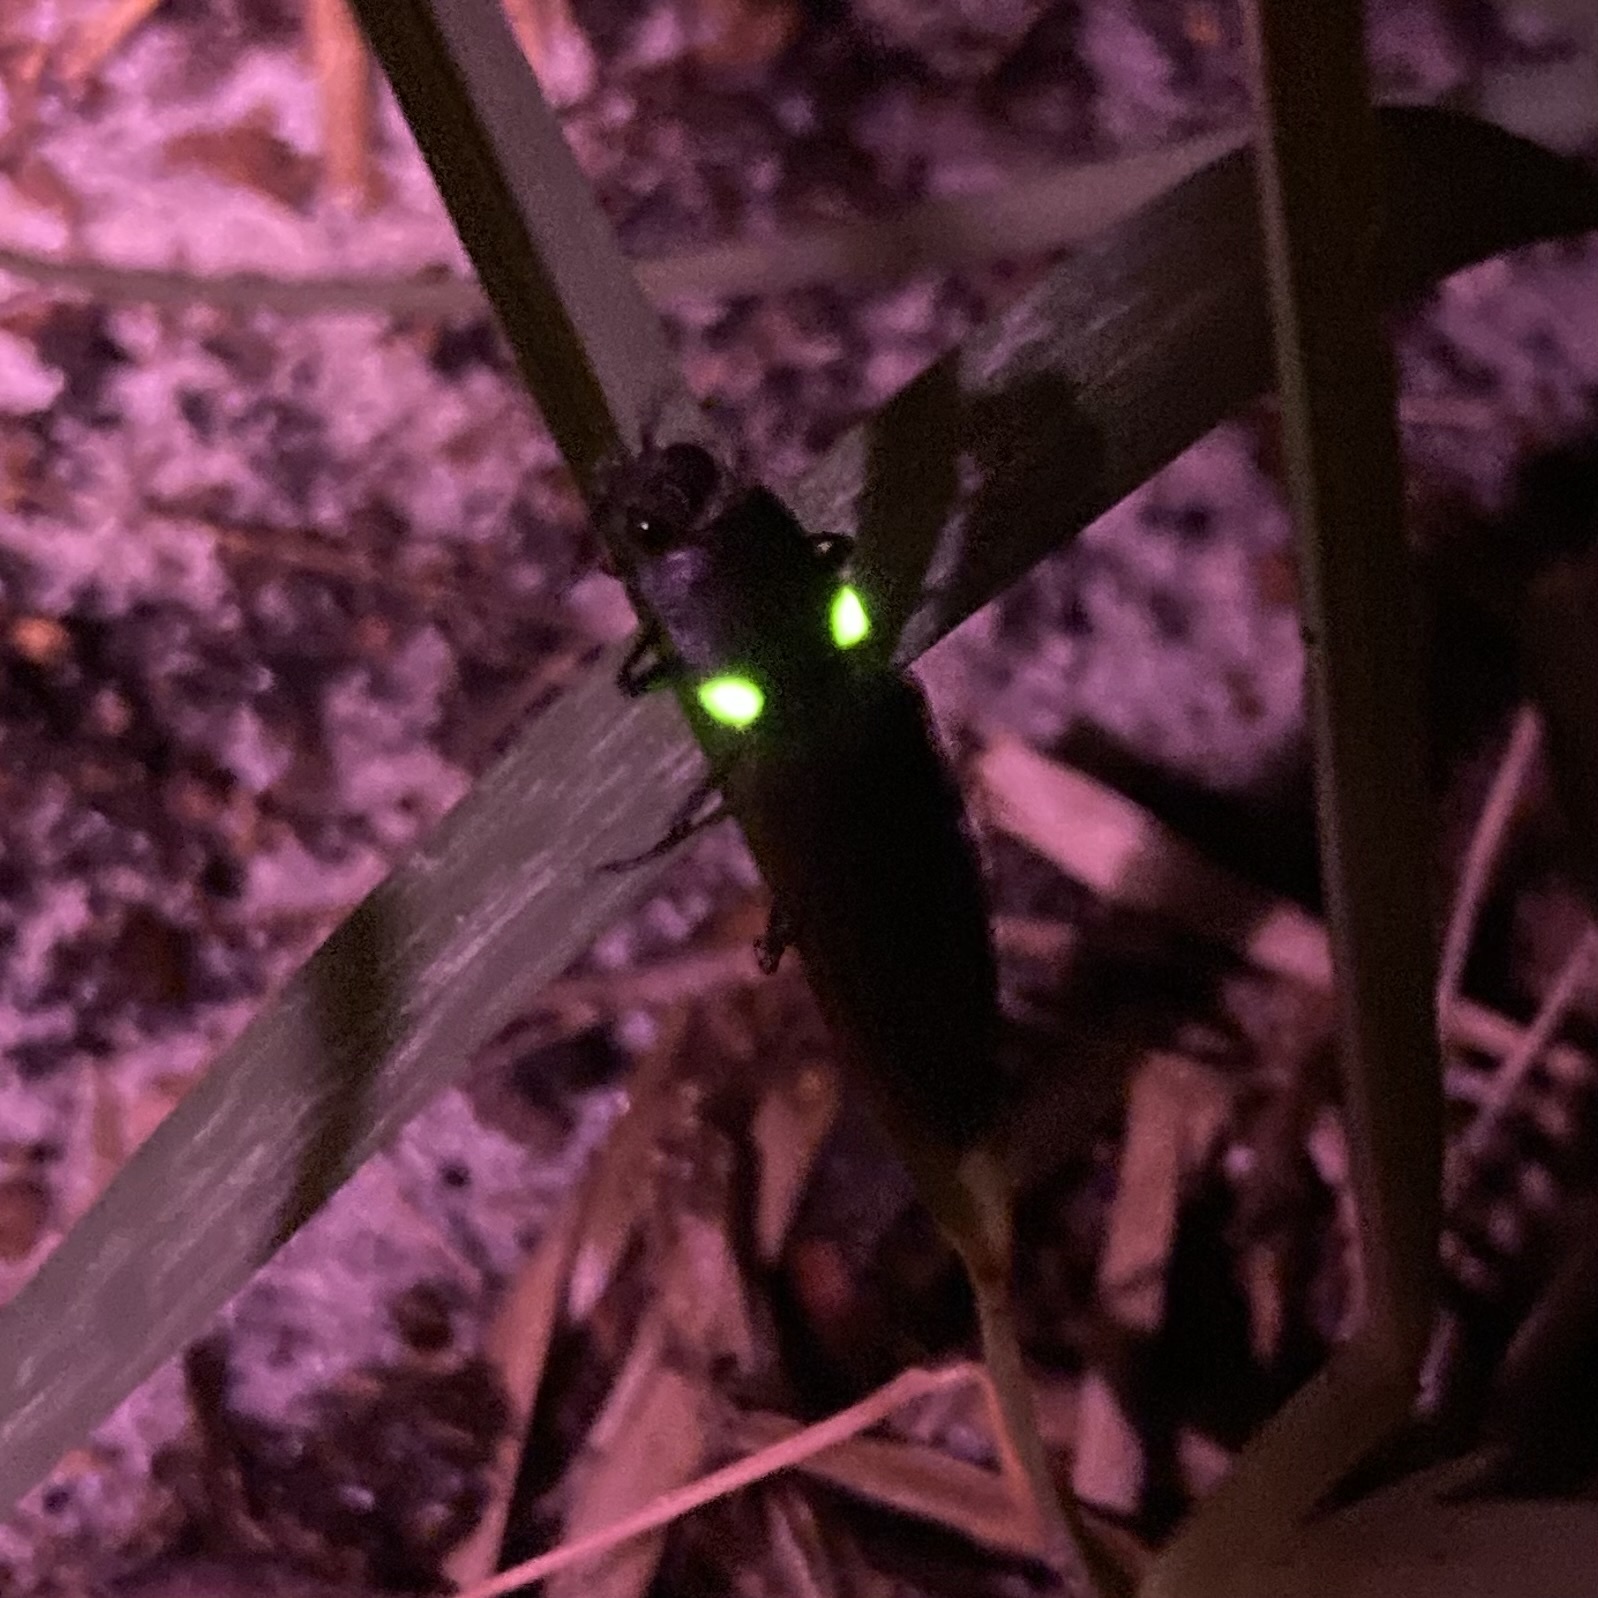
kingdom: Animalia
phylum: Arthropoda
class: Insecta
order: Coleoptera
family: Elateridae
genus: Ignelater
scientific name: Ignelater havaniensis
